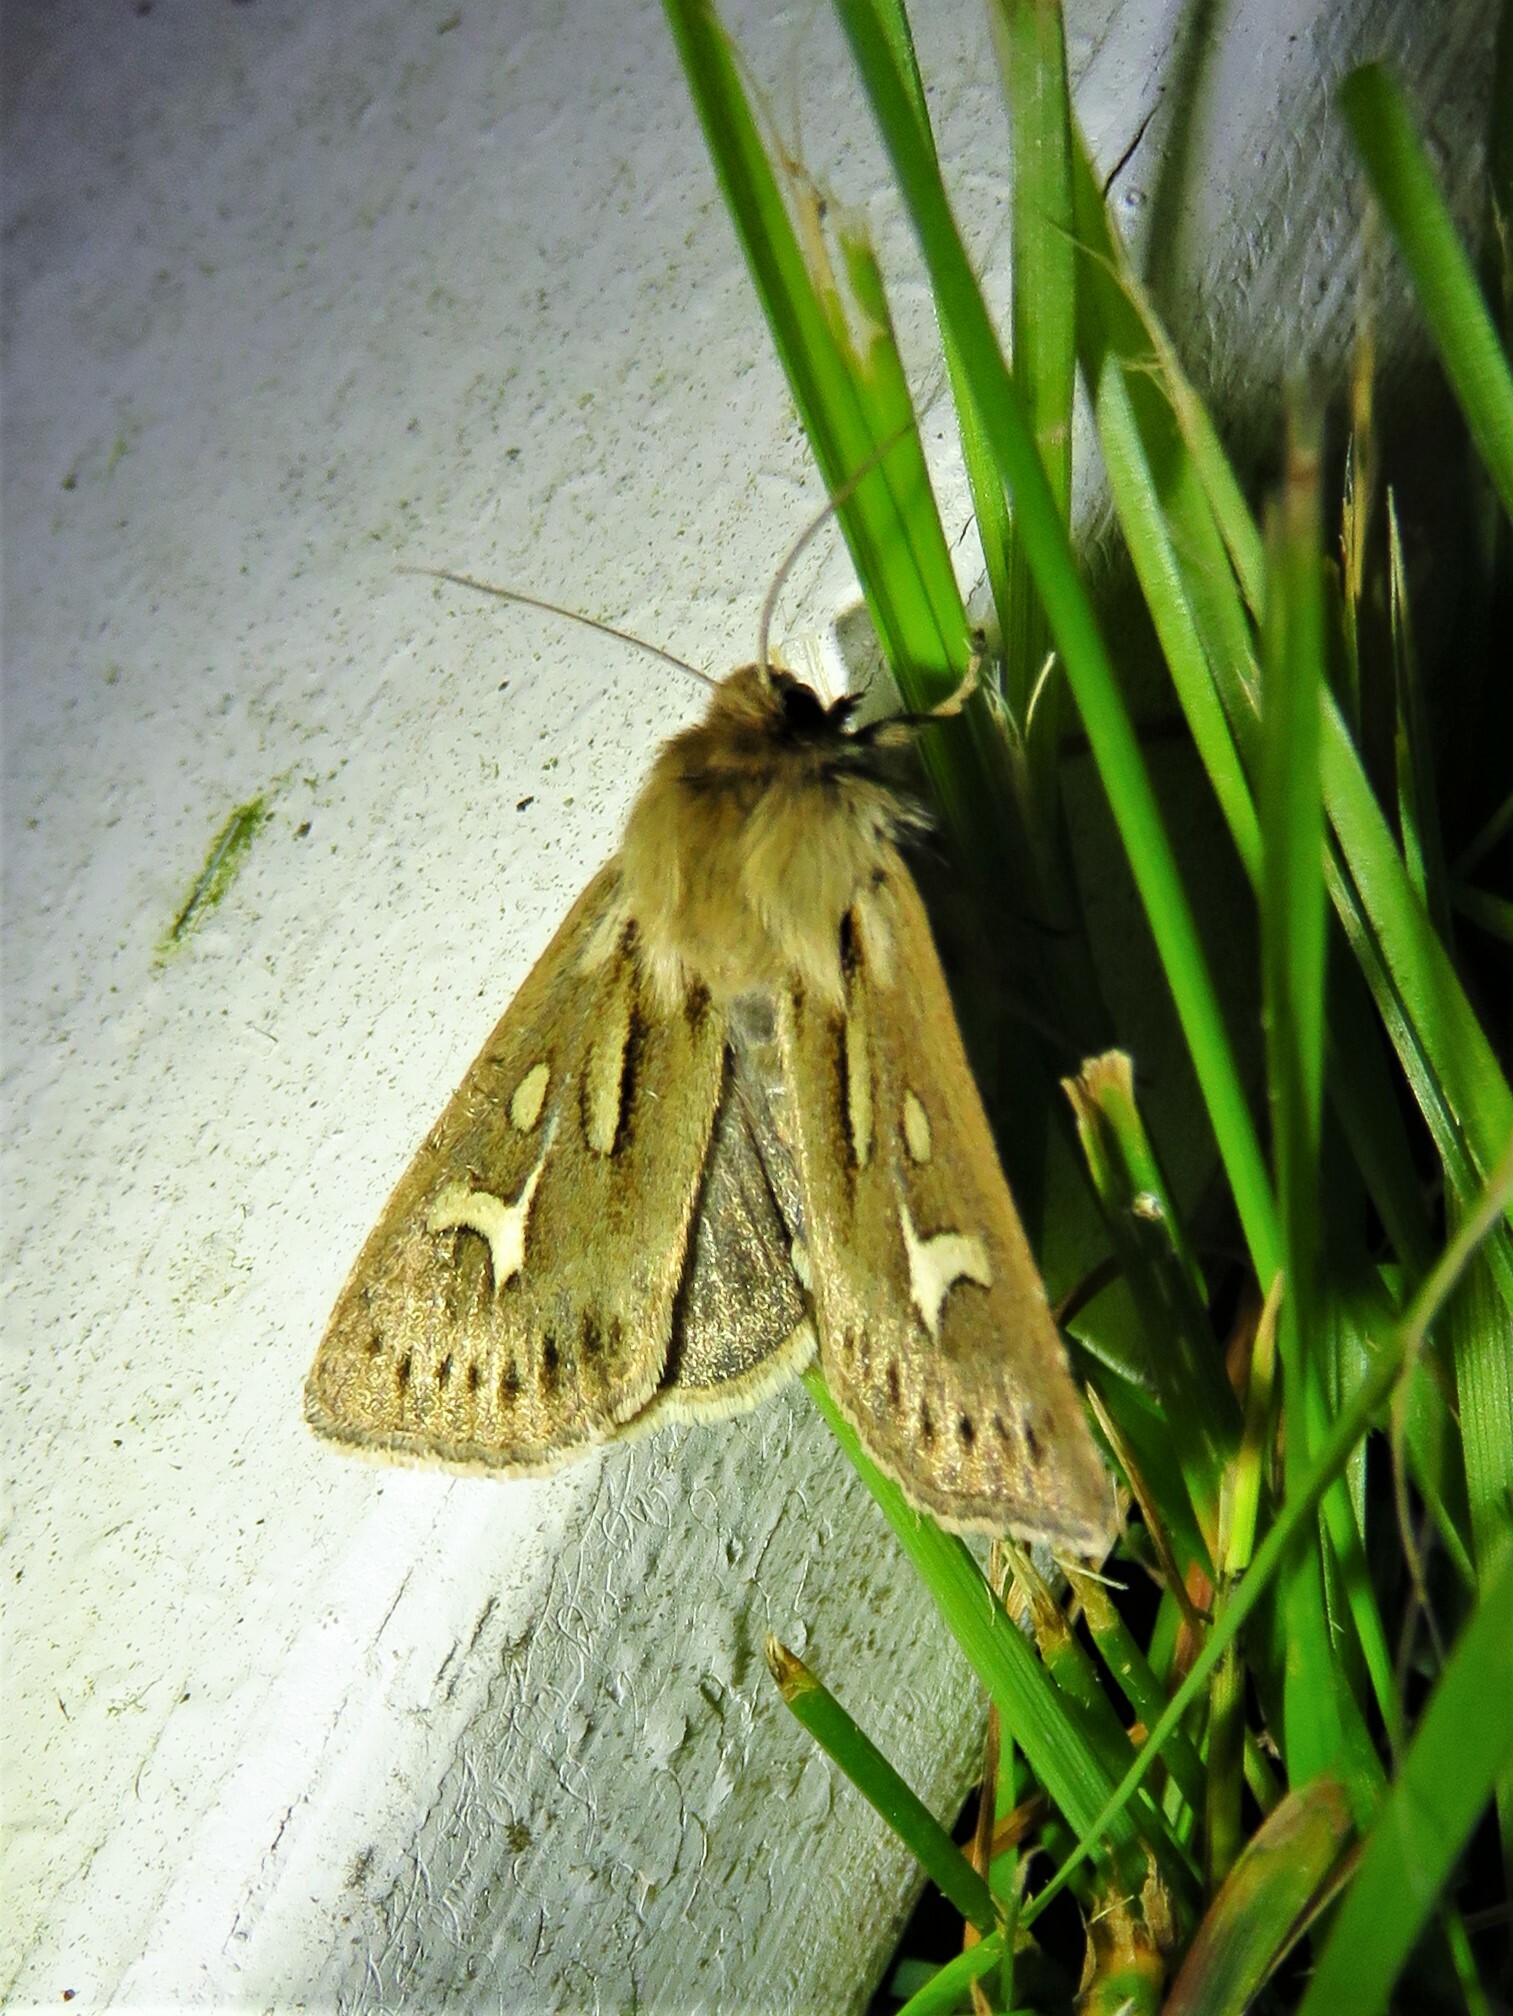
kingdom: Animalia
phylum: Arthropoda
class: Insecta
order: Lepidoptera
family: Noctuidae
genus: Cerapteryx
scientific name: Cerapteryx graminis
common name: Antler moth
